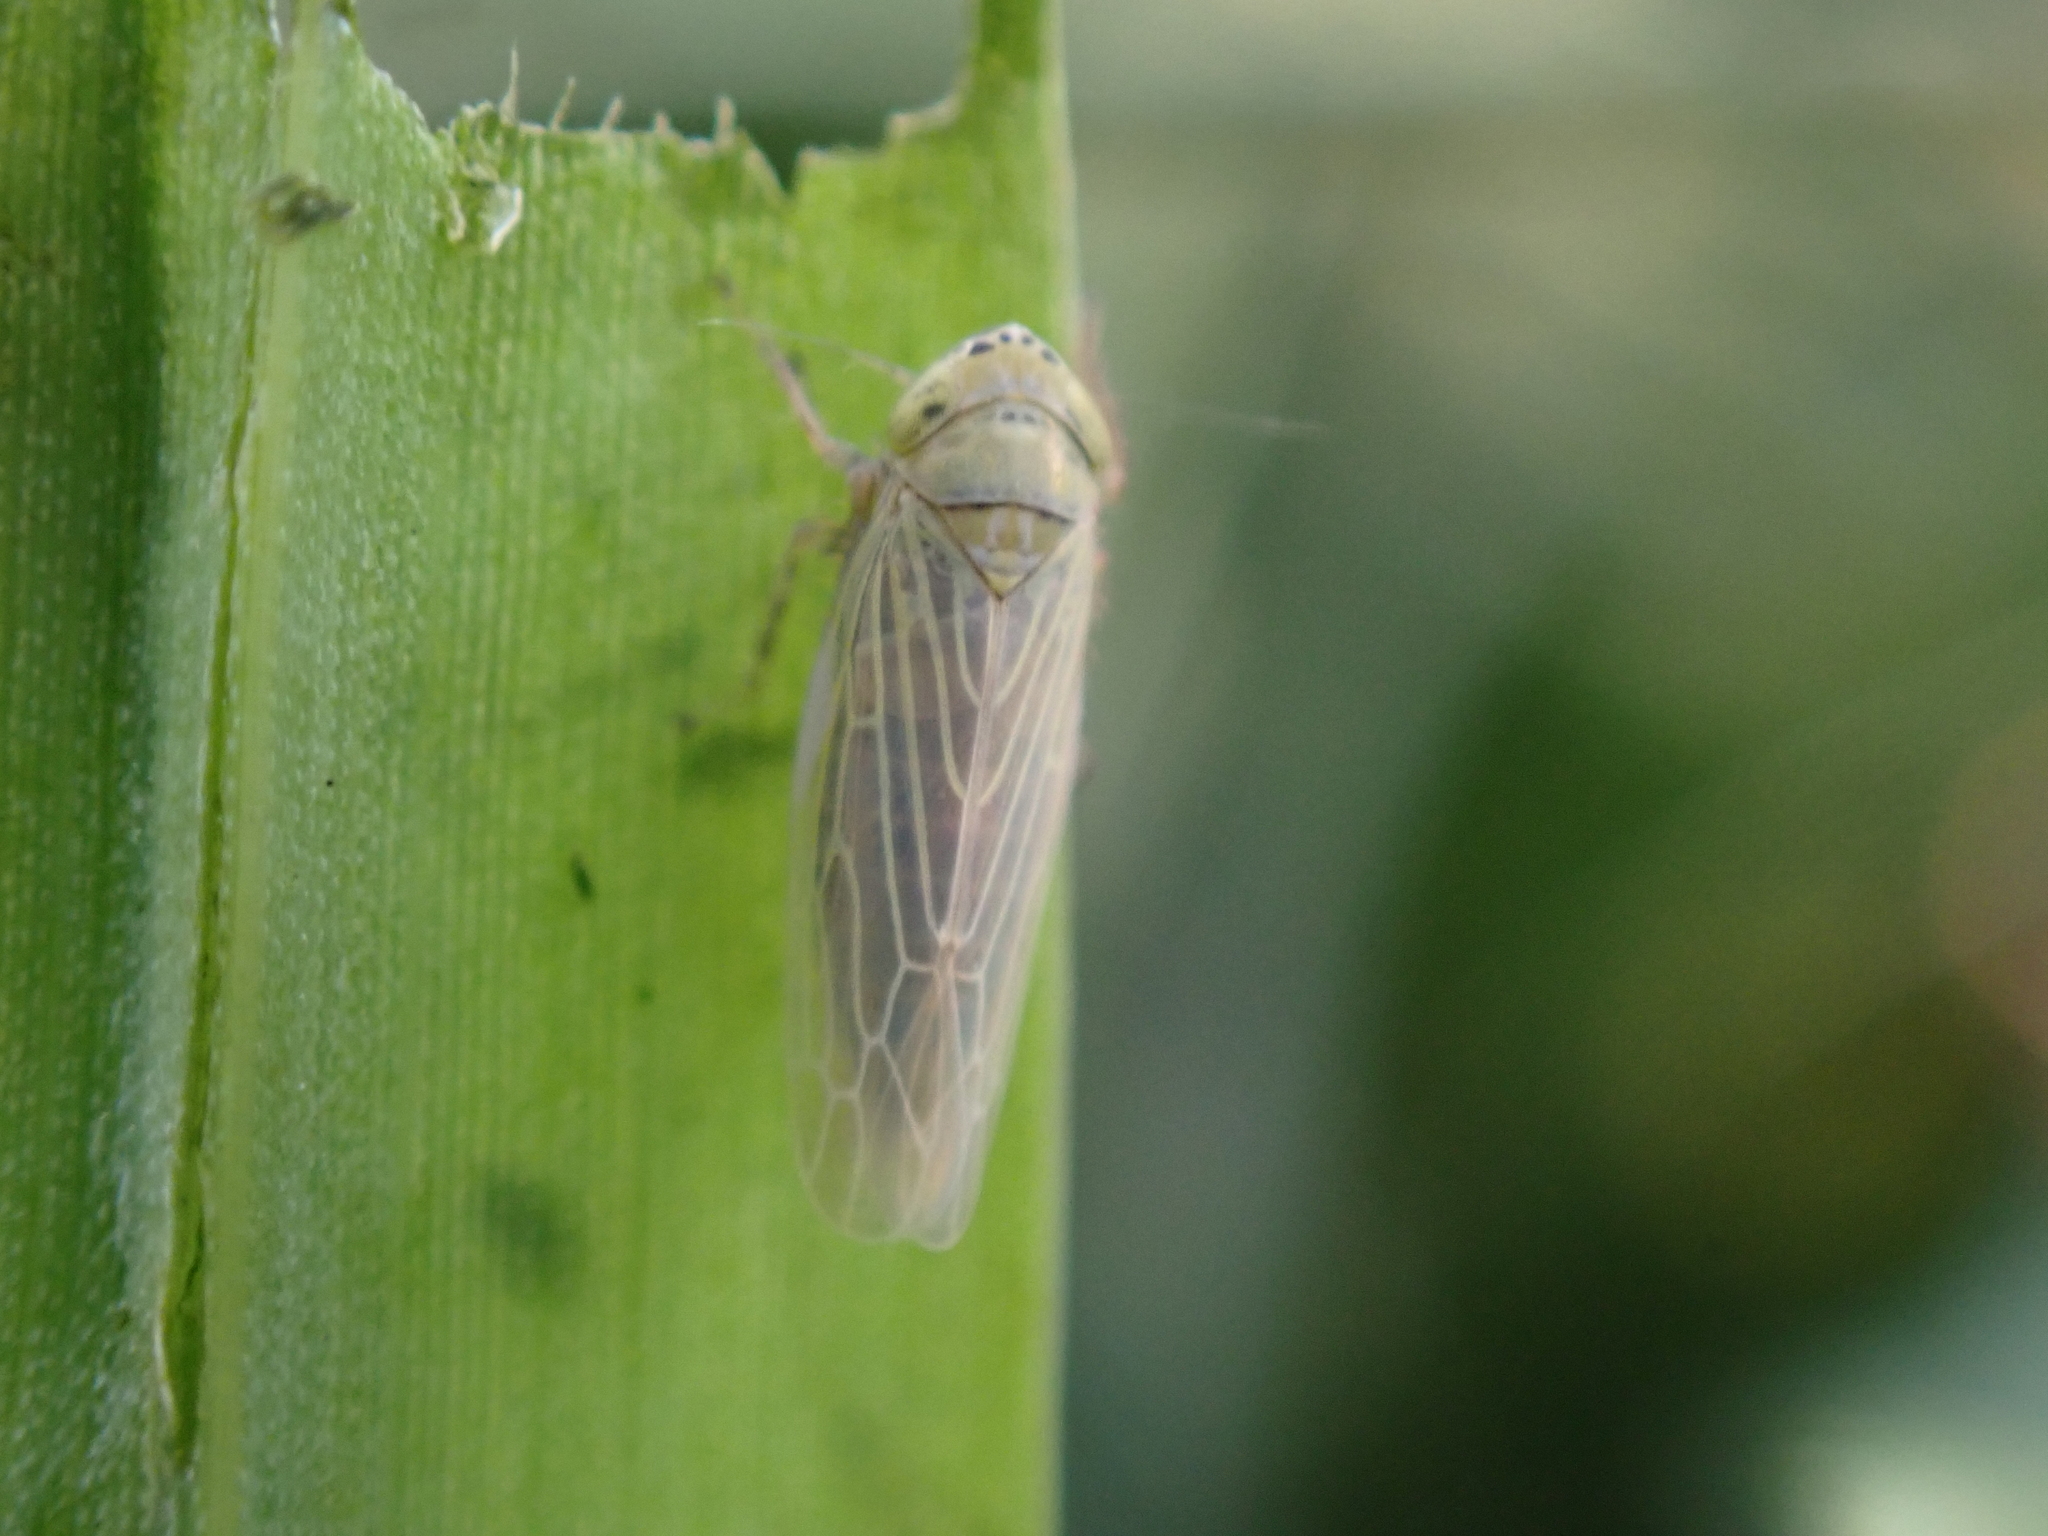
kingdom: Animalia
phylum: Arthropoda
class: Insecta
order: Hemiptera
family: Cicadellidae
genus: Graminella
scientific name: Graminella nigrifrons
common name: Blackfaced leafhopper
